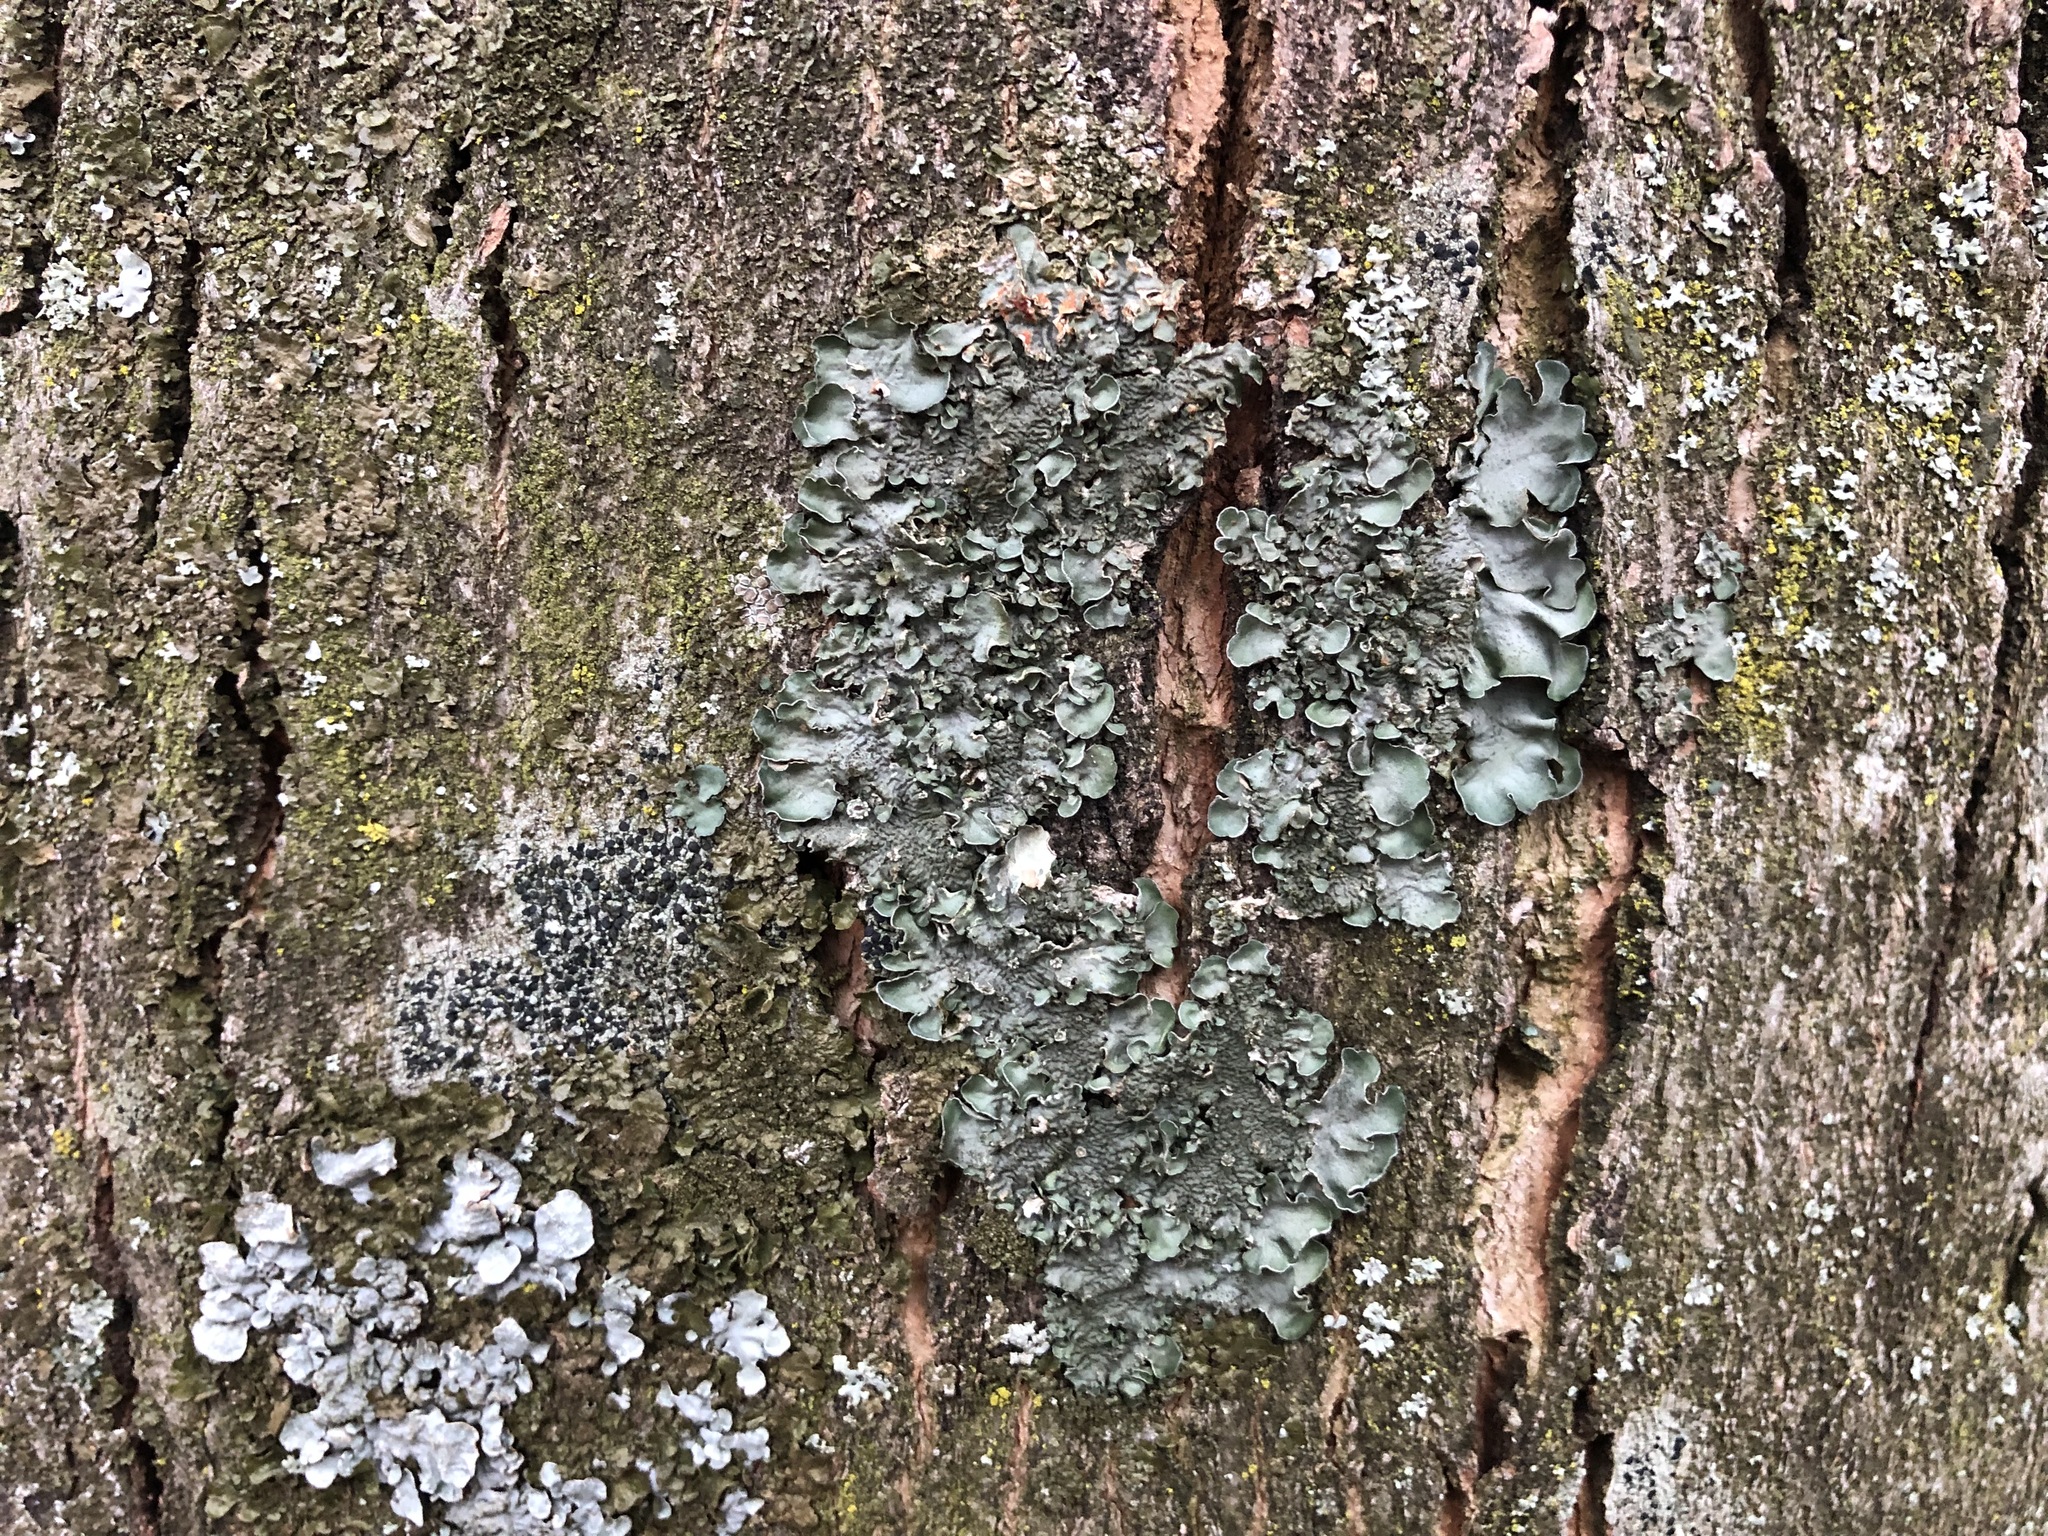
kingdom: Fungi
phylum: Ascomycota
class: Lecanoromycetes
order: Lecanorales
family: Parmeliaceae
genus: Pleurosticta
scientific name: Pleurosticta acetabulum
